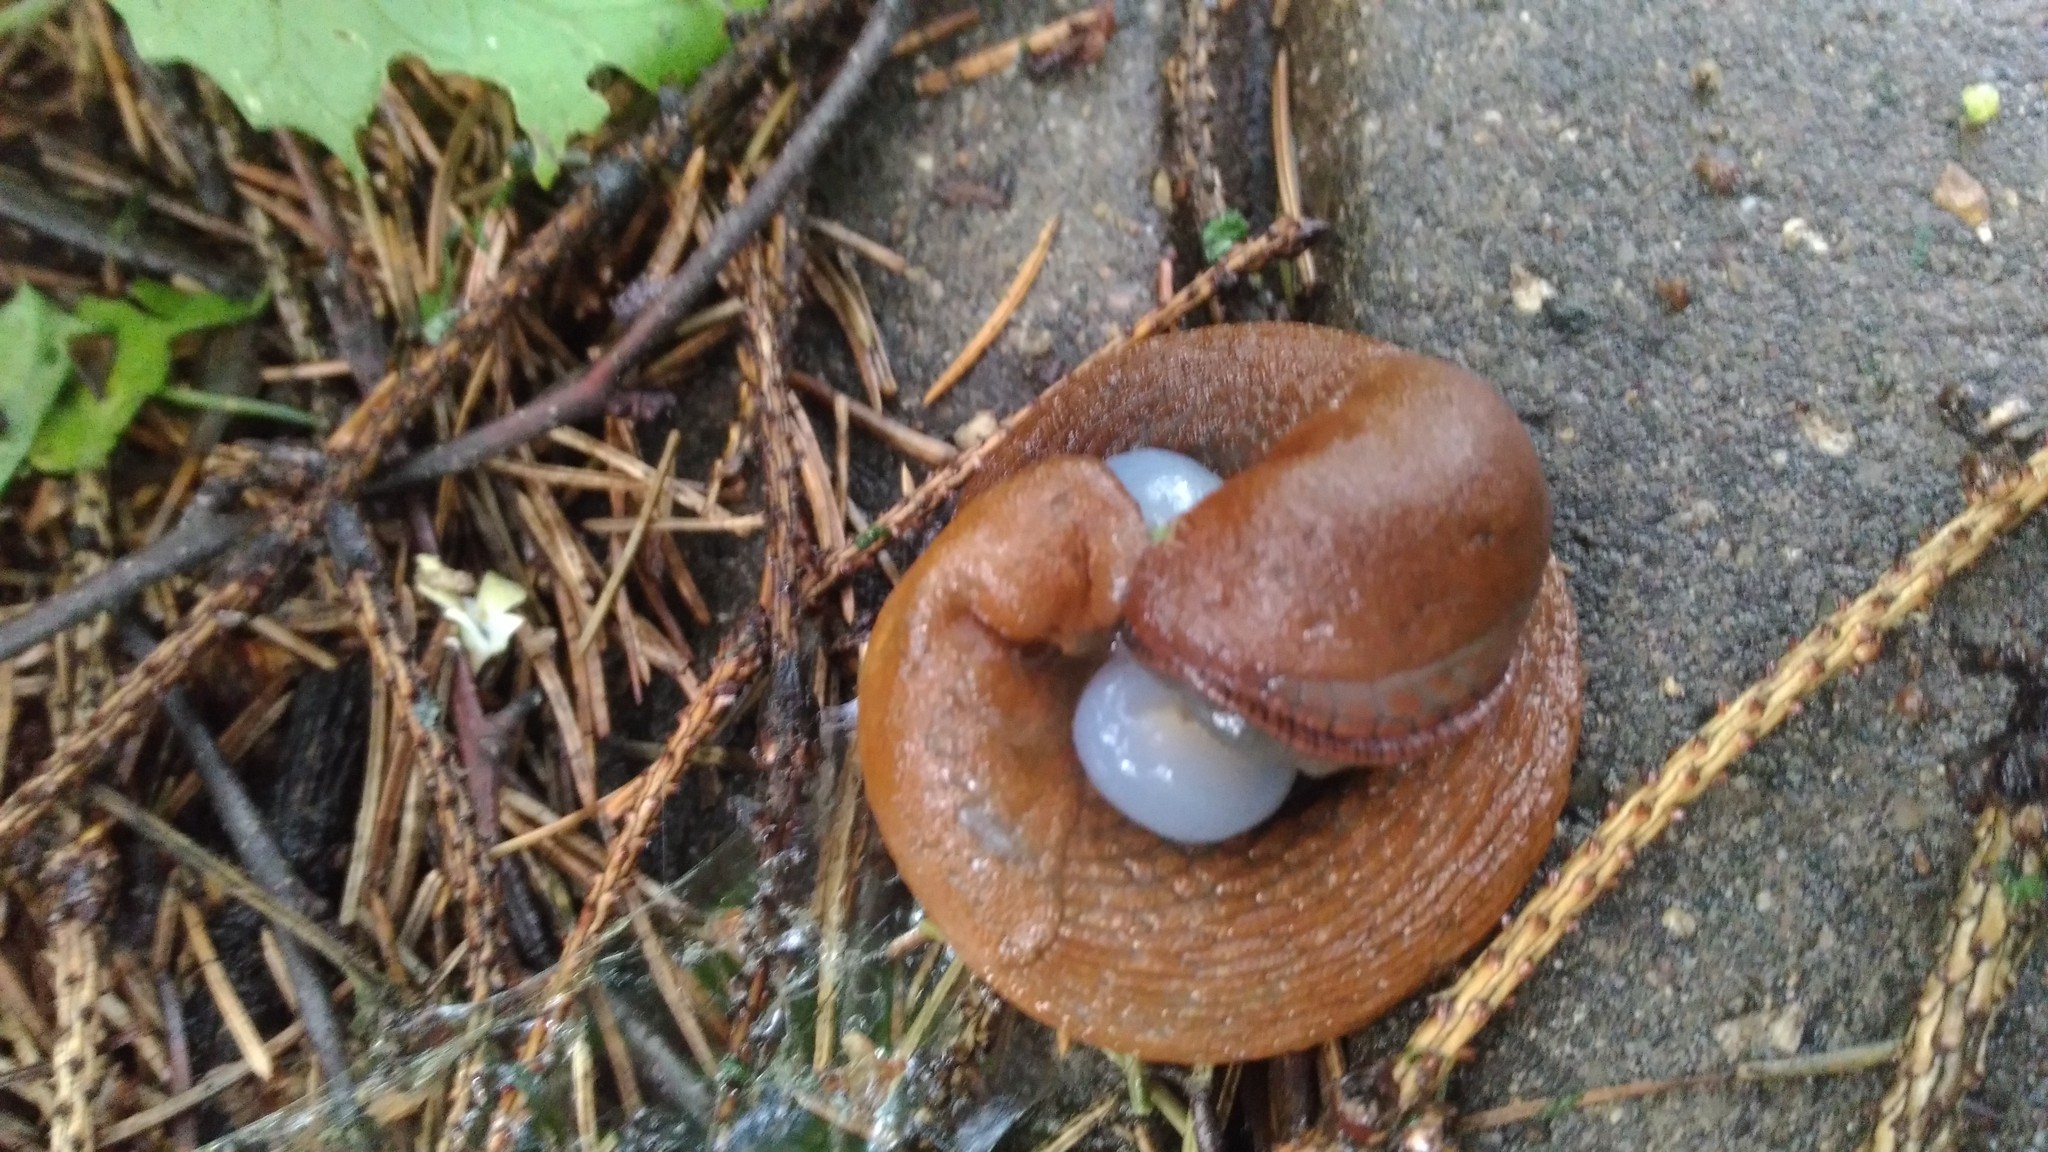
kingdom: Animalia
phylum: Mollusca
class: Gastropoda
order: Stylommatophora
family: Arionidae
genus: Arion
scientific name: Arion vulgaris
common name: Lusitanian slug
